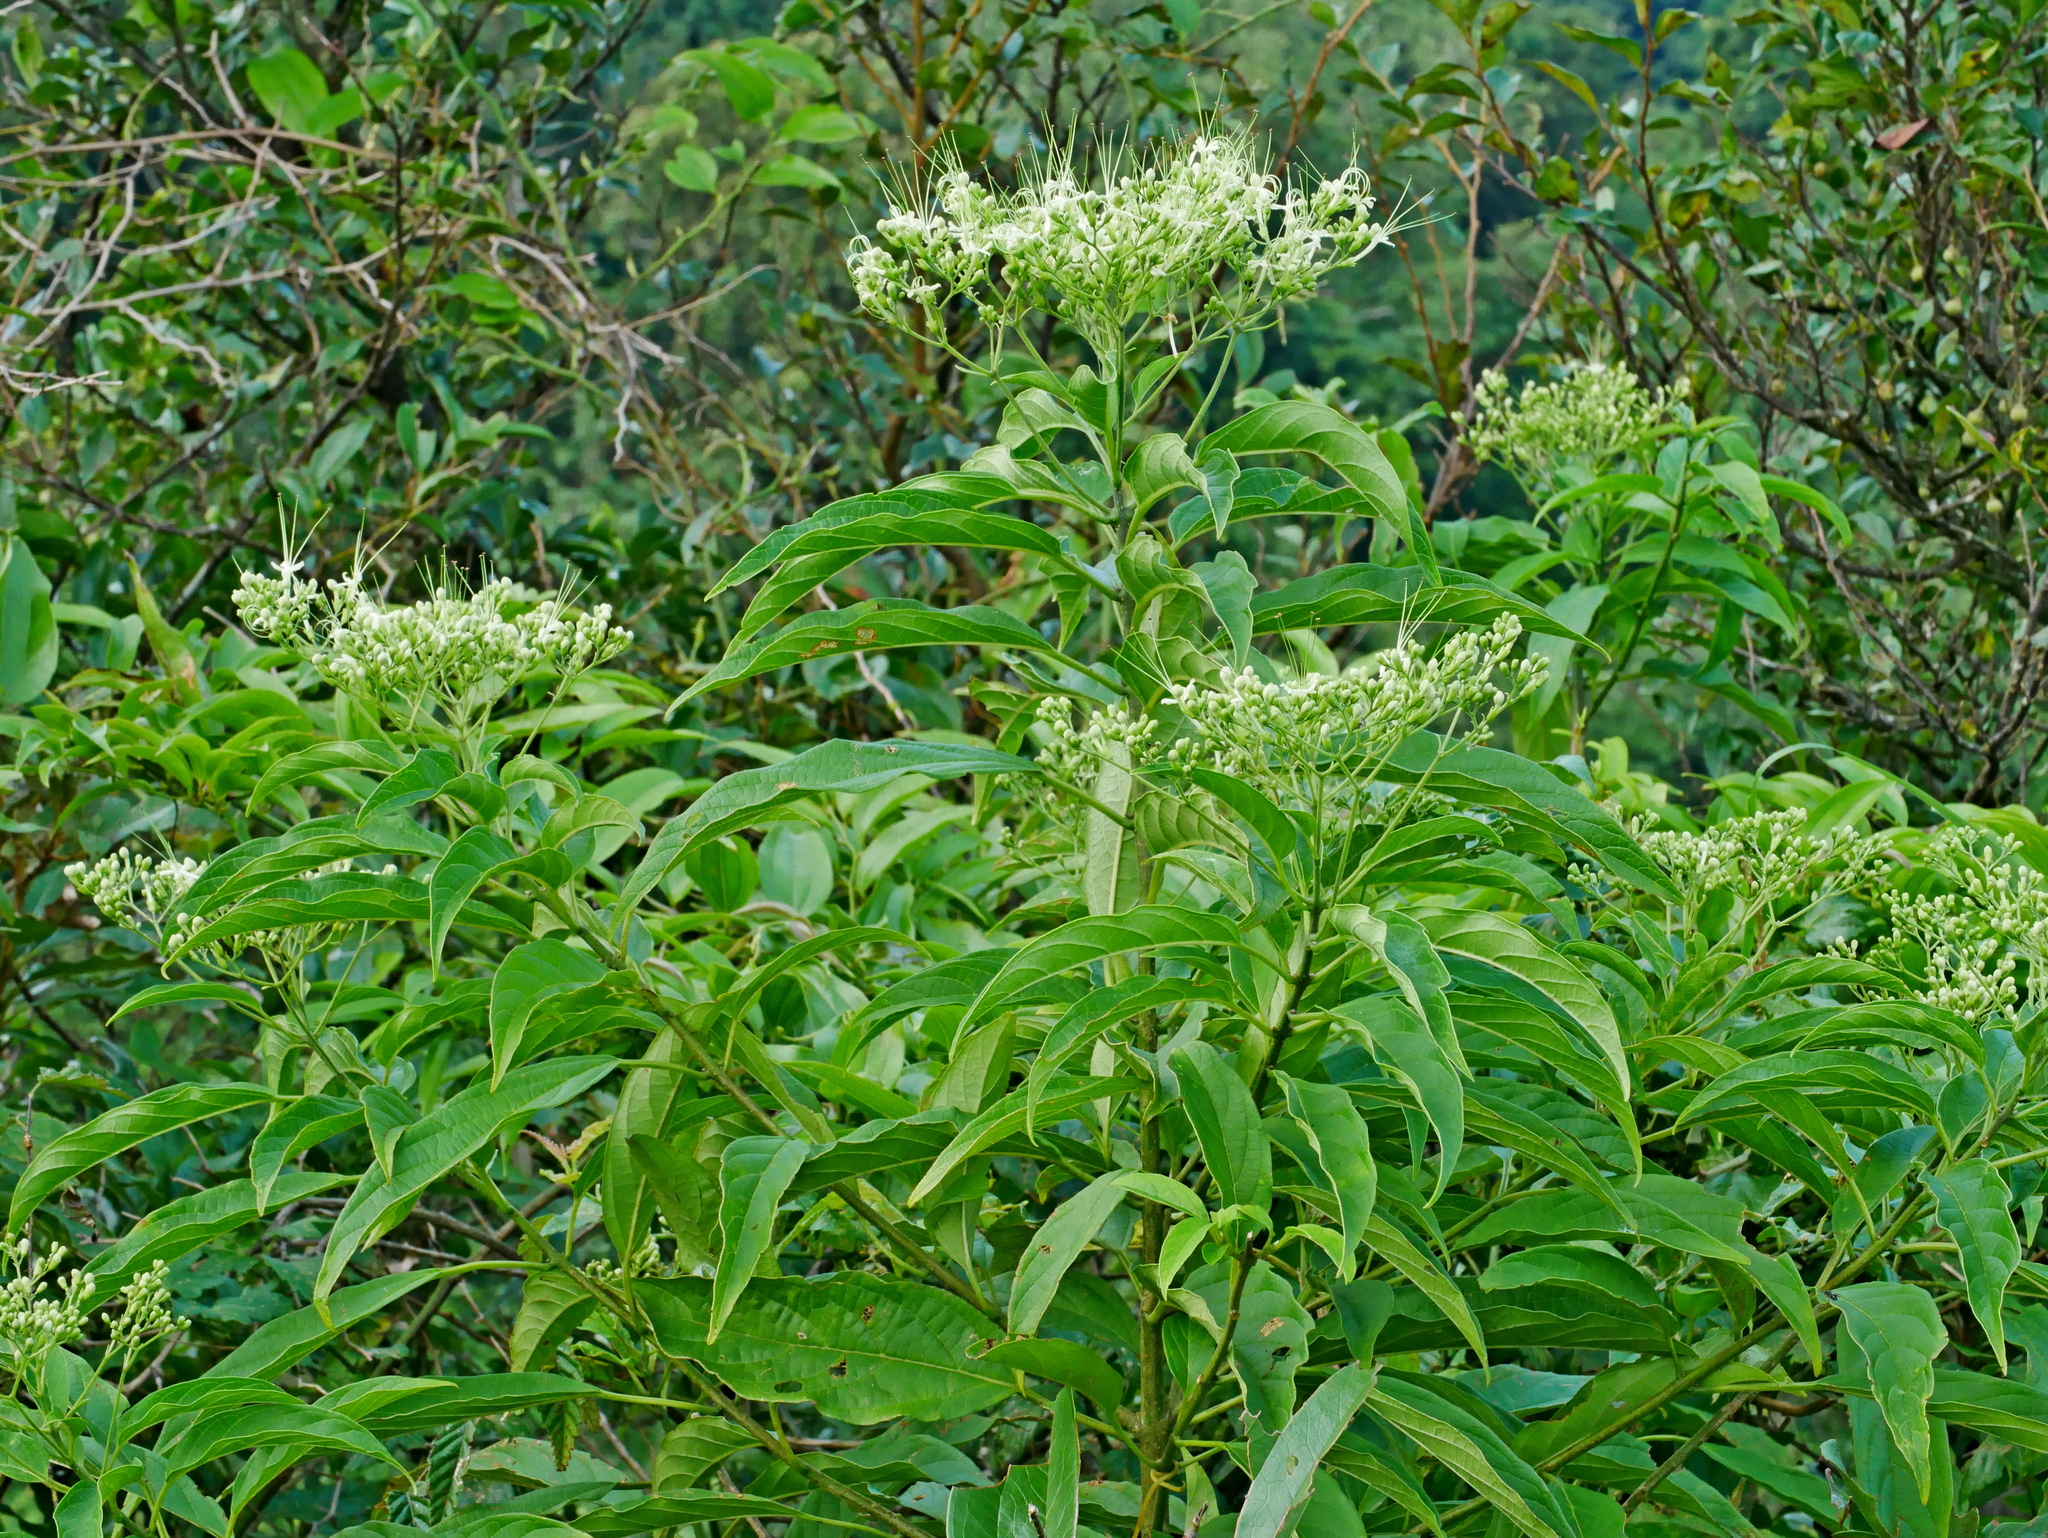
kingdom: Plantae
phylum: Tracheophyta
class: Magnoliopsida
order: Lamiales
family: Lamiaceae
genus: Clerodendrum
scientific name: Clerodendrum cyrtophyllum
